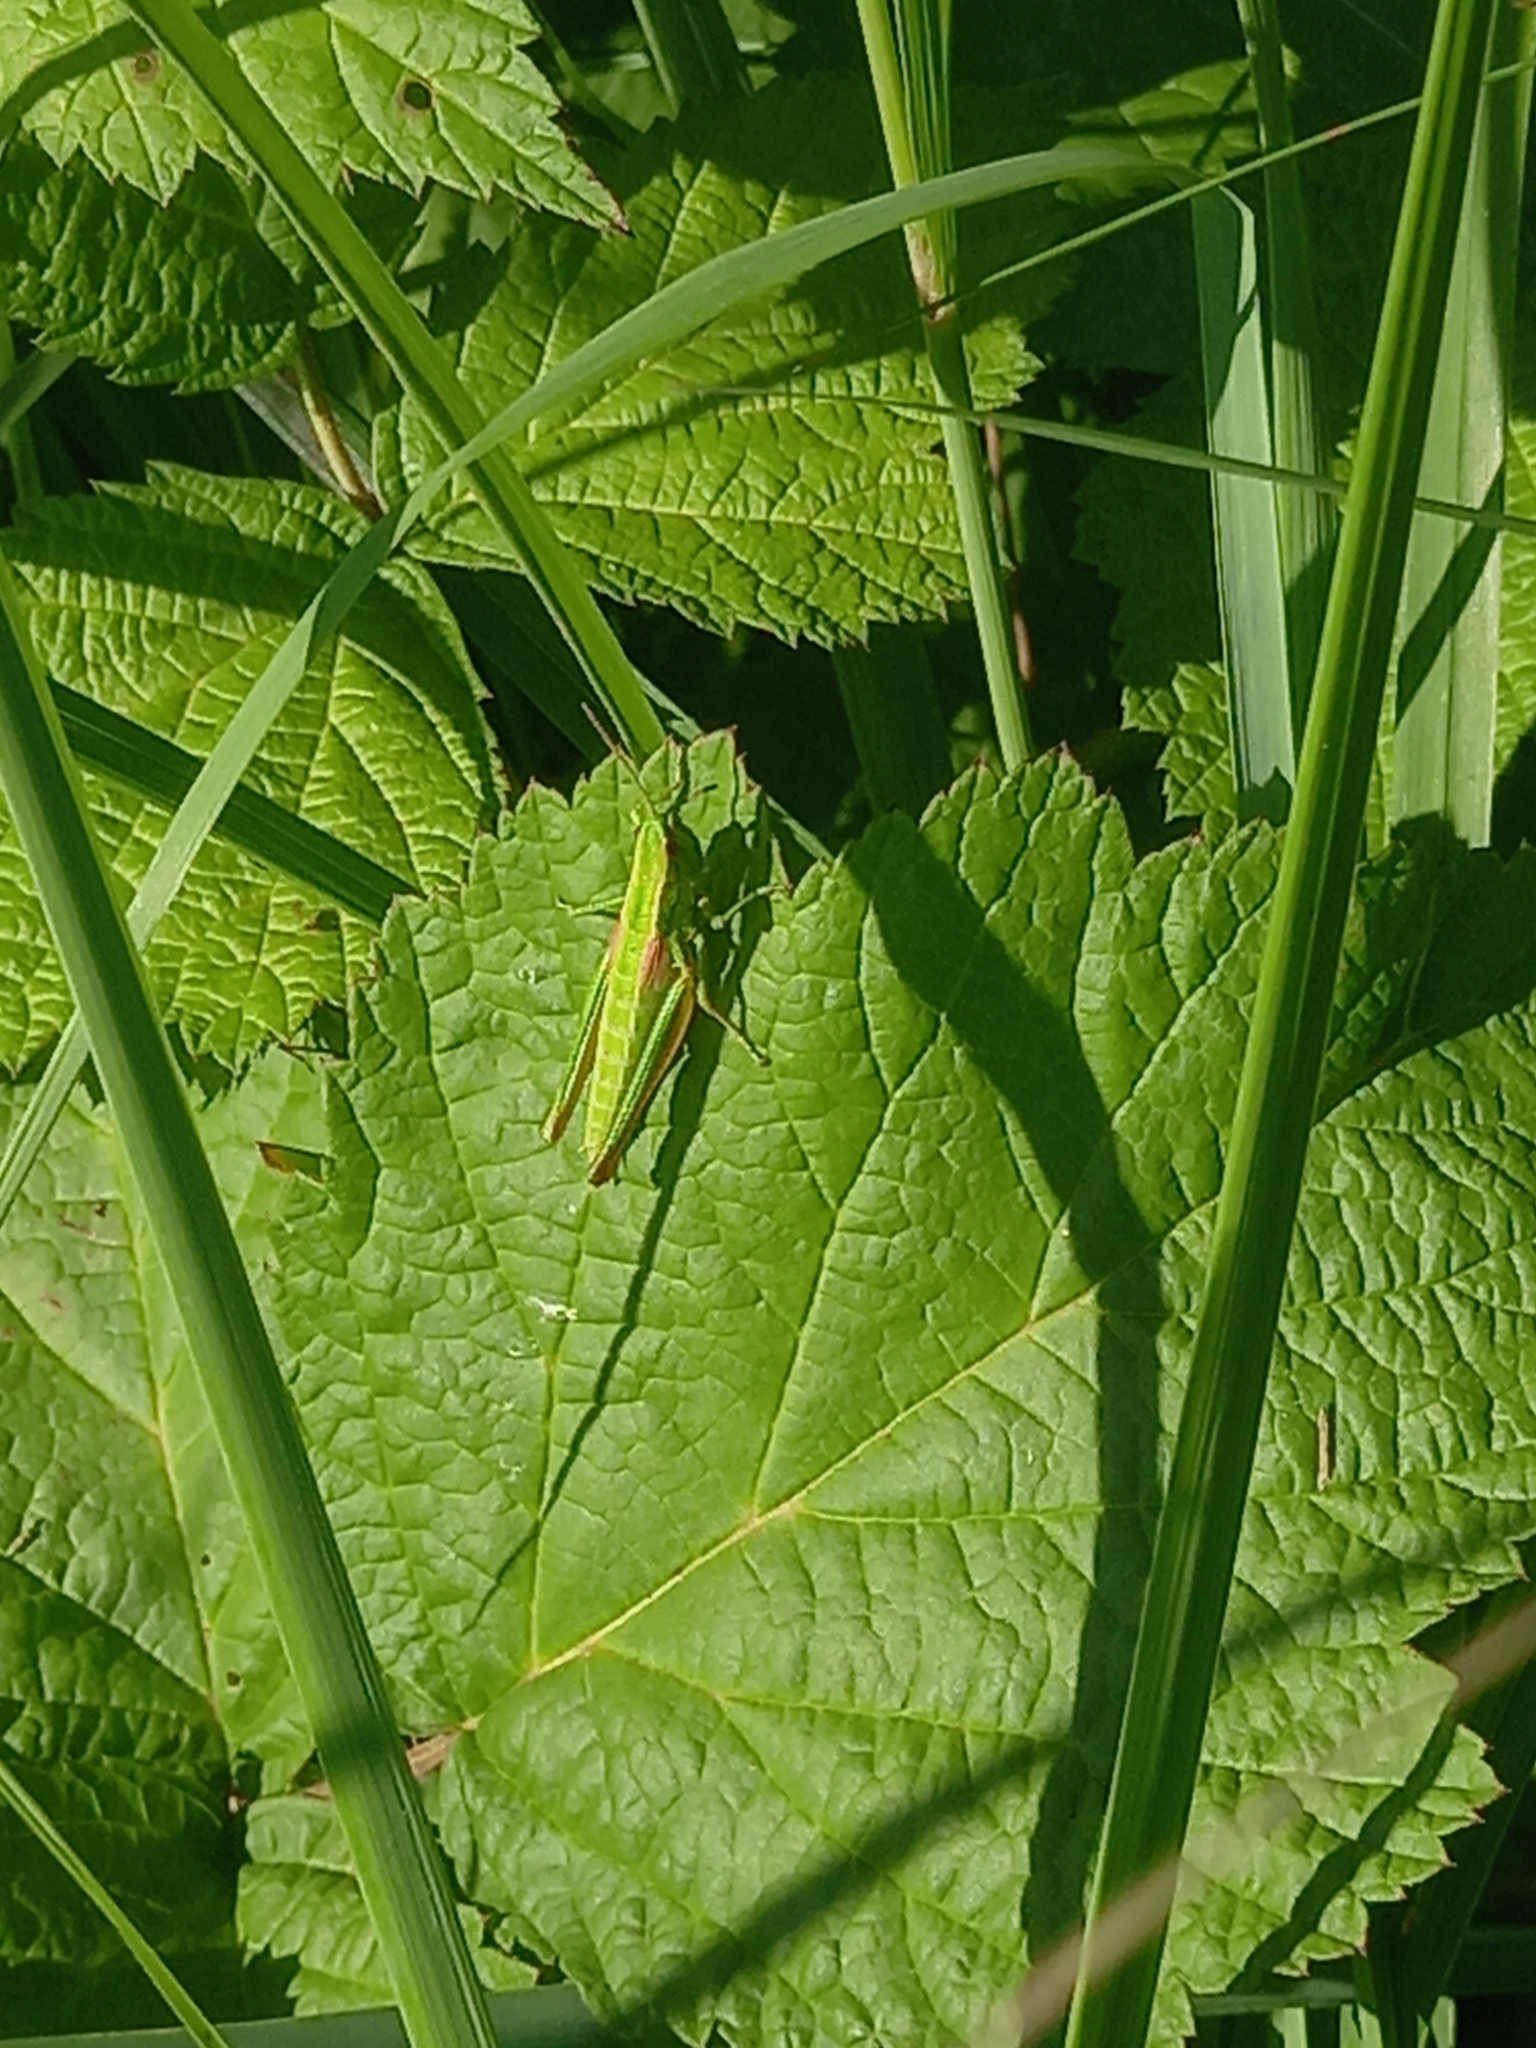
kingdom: Animalia
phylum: Arthropoda
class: Insecta
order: Orthoptera
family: Acrididae
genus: Euthystira
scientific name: Euthystira brachyptera
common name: Small gold grasshopper
